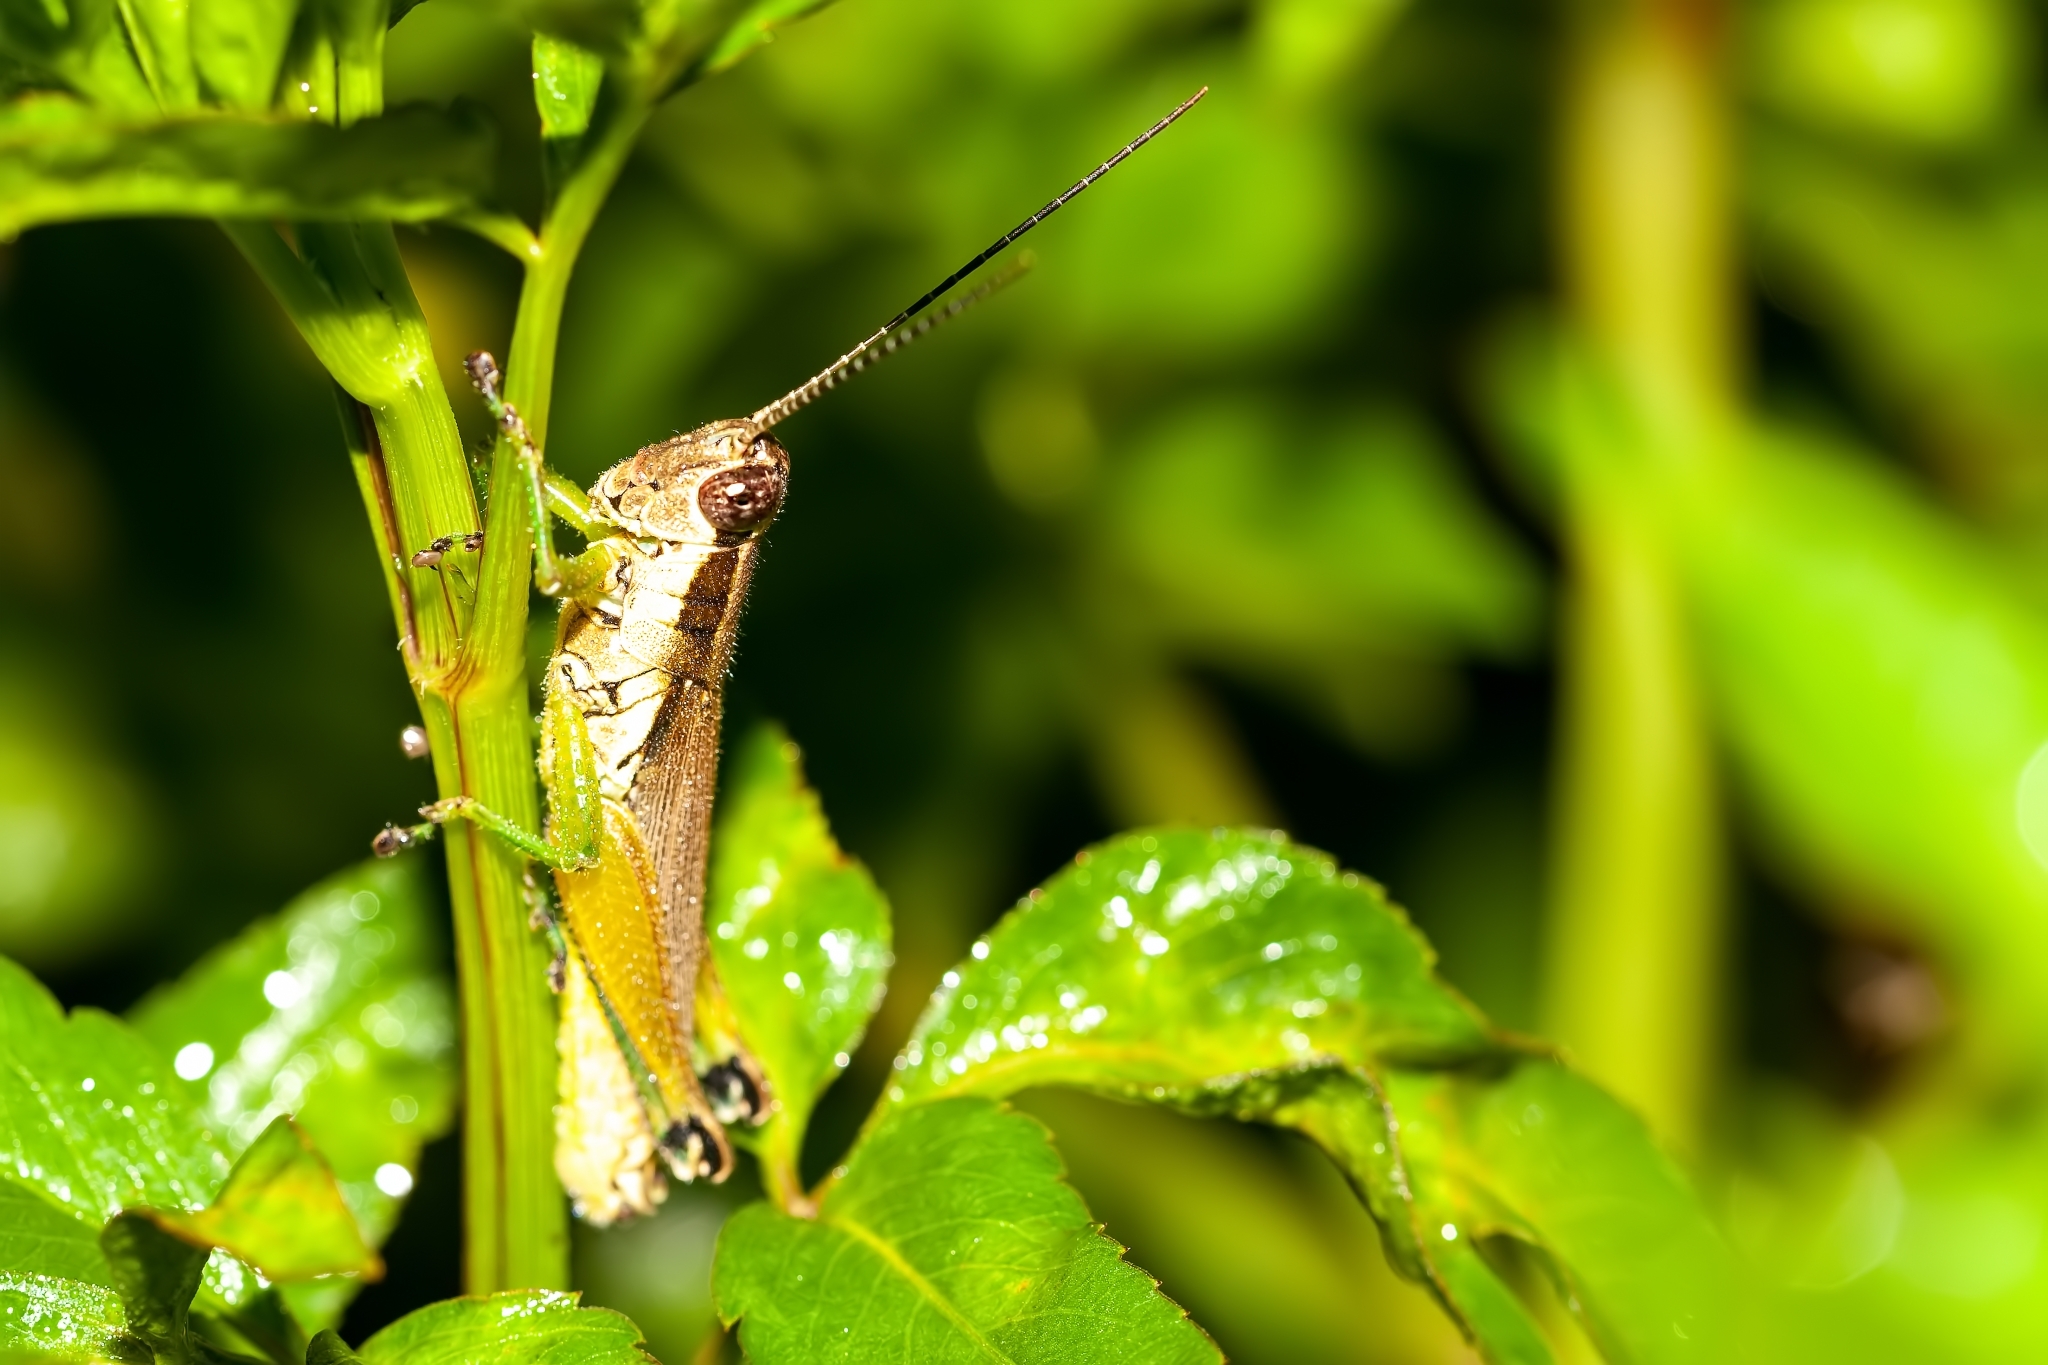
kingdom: Animalia
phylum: Arthropoda
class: Insecta
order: Orthoptera
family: Acrididae
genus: Paroxya
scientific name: Paroxya clavuligera
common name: Olive-green swamp grasshopper
